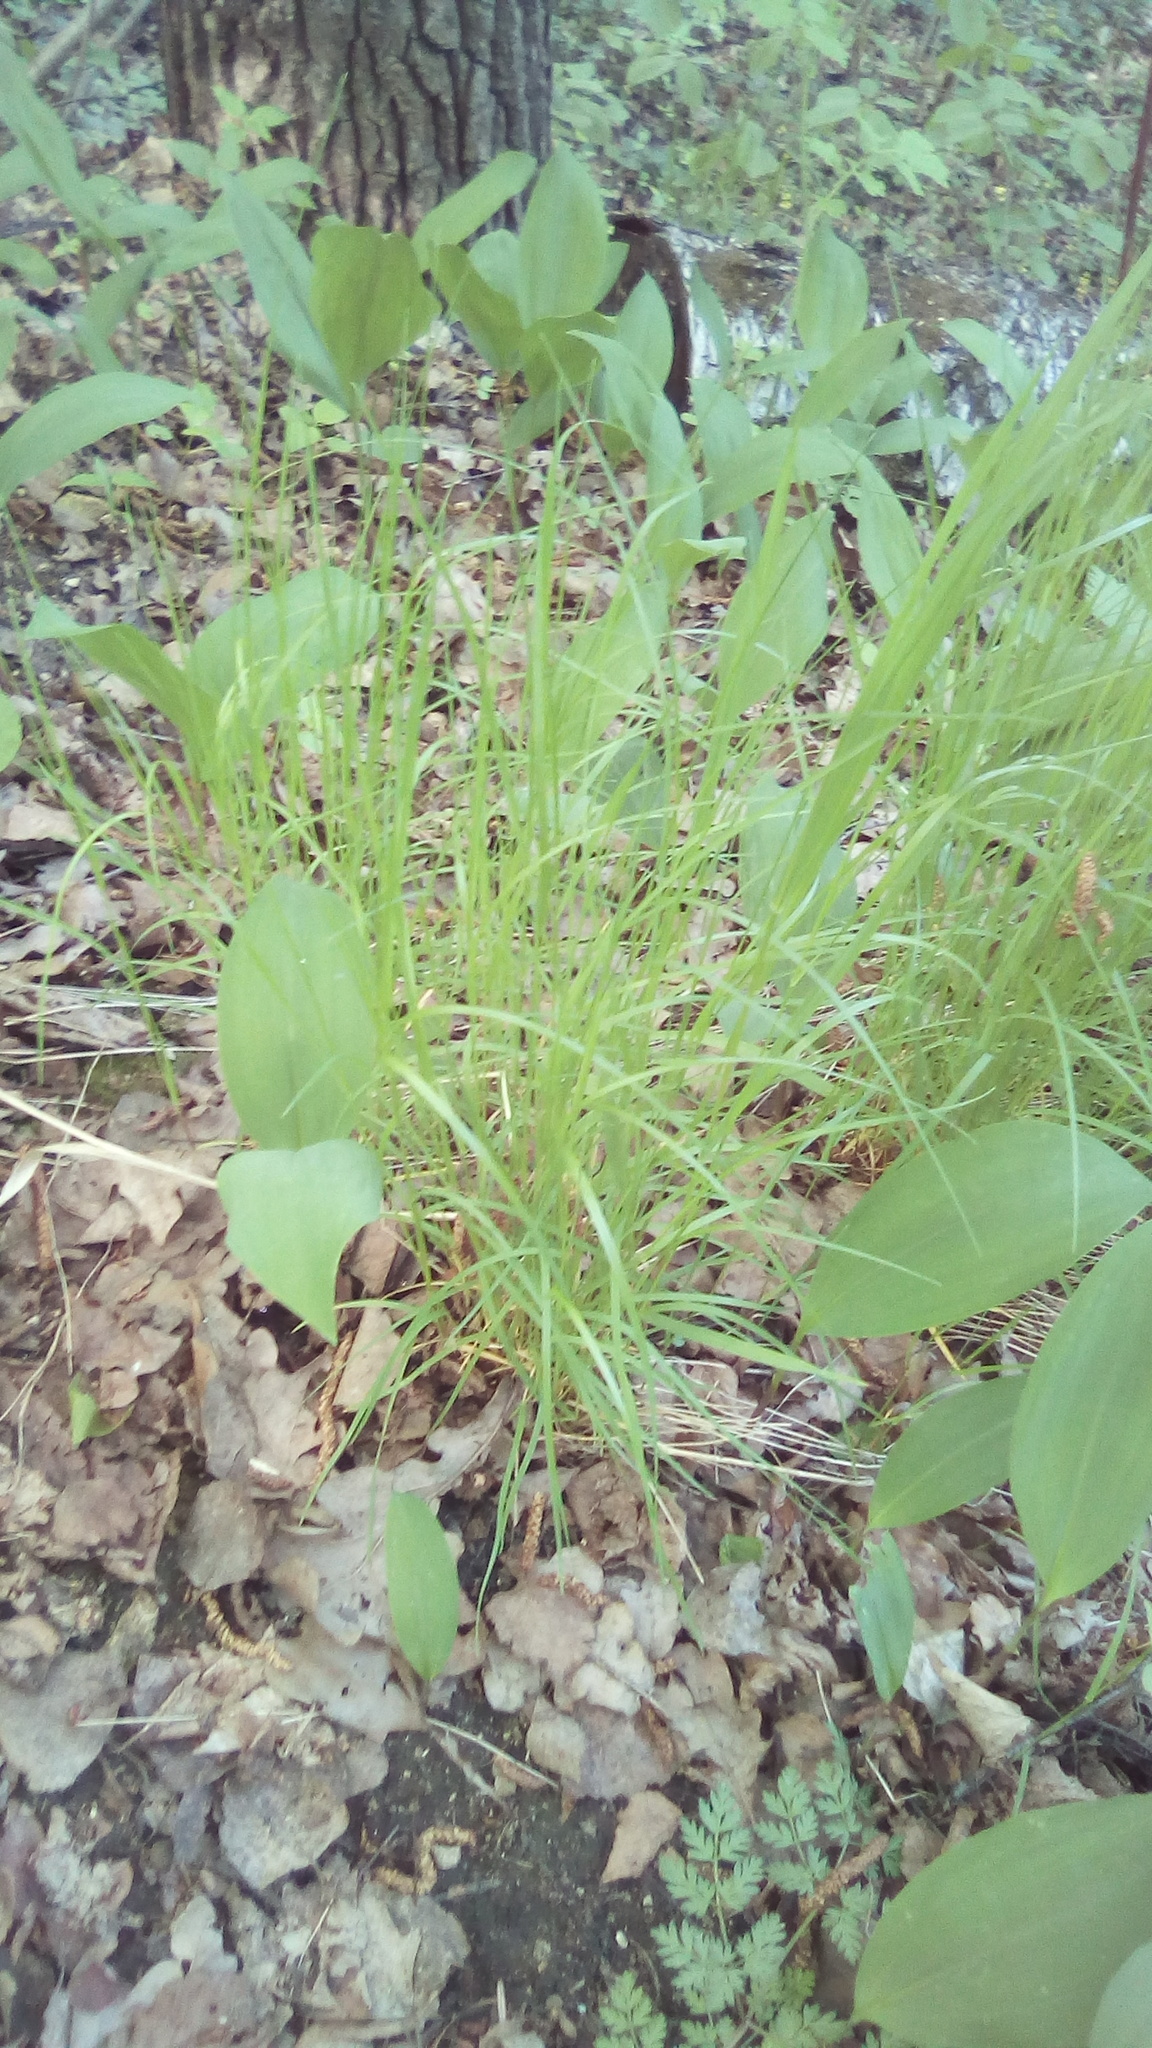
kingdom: Plantae
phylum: Tracheophyta
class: Liliopsida
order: Asparagales
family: Asparagaceae
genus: Convallaria
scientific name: Convallaria majalis
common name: Lily-of-the-valley
